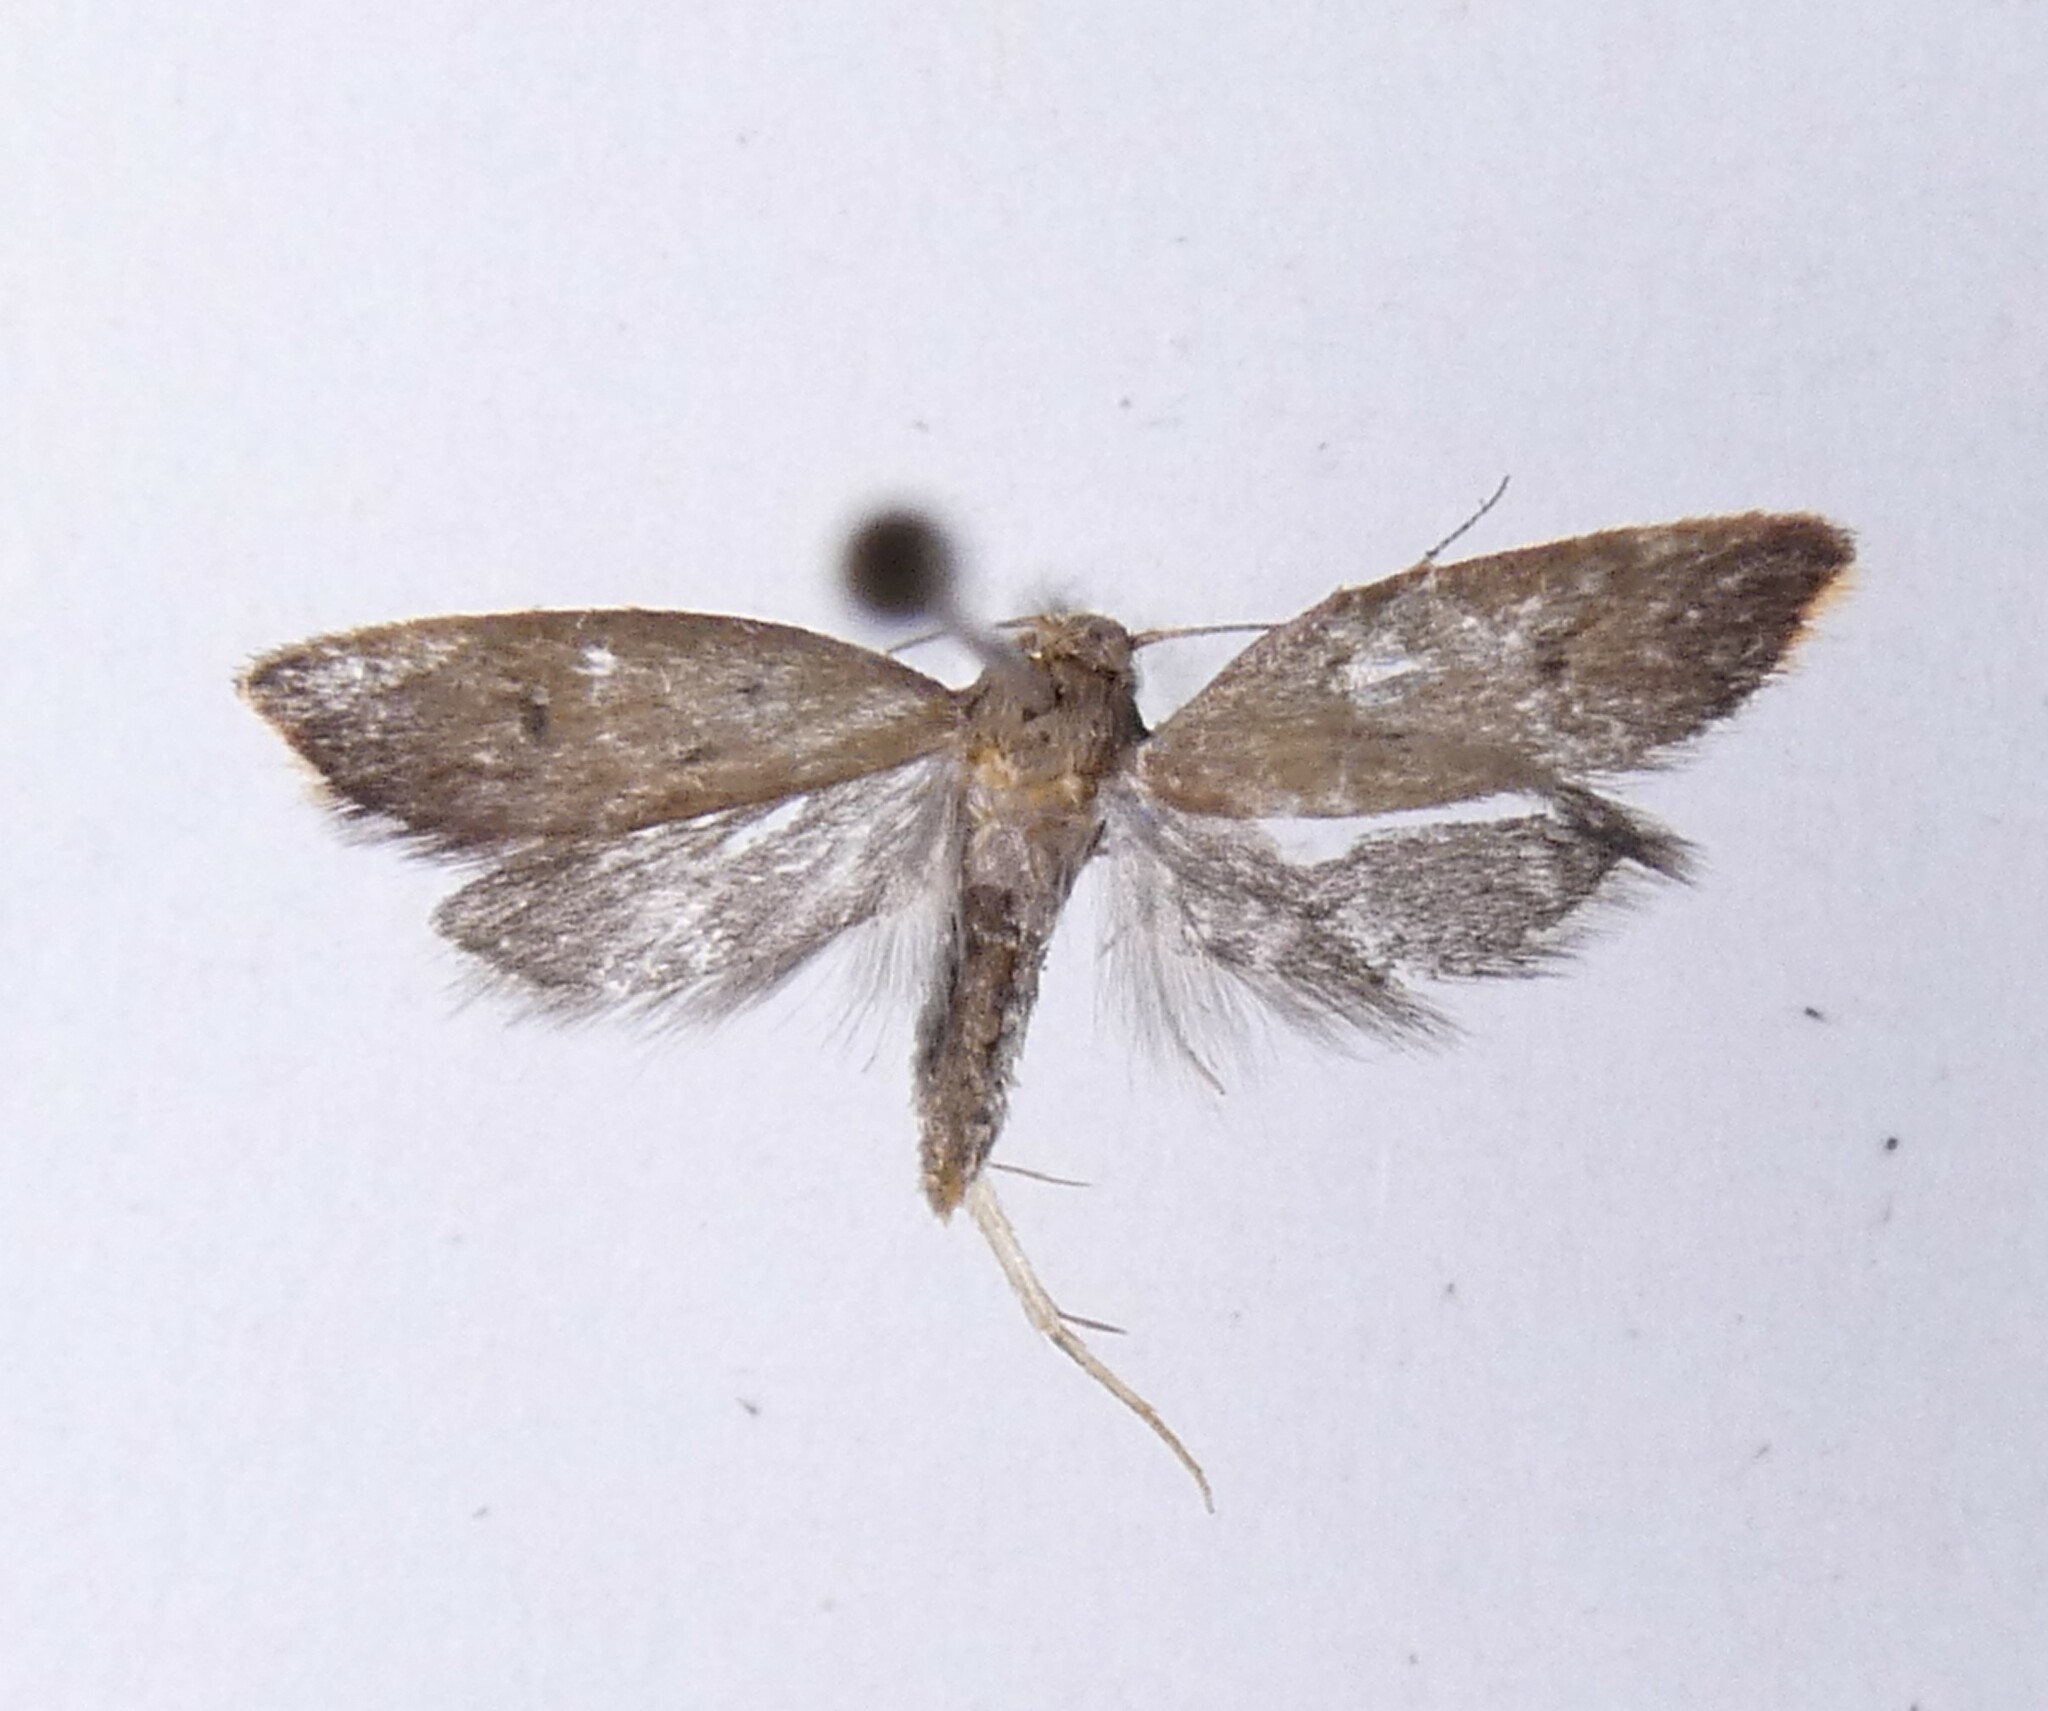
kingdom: Animalia
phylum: Arthropoda
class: Insecta
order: Lepidoptera
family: Oecophoridae
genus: Tachystola
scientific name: Tachystola acroxantha
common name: Ruddy streak
